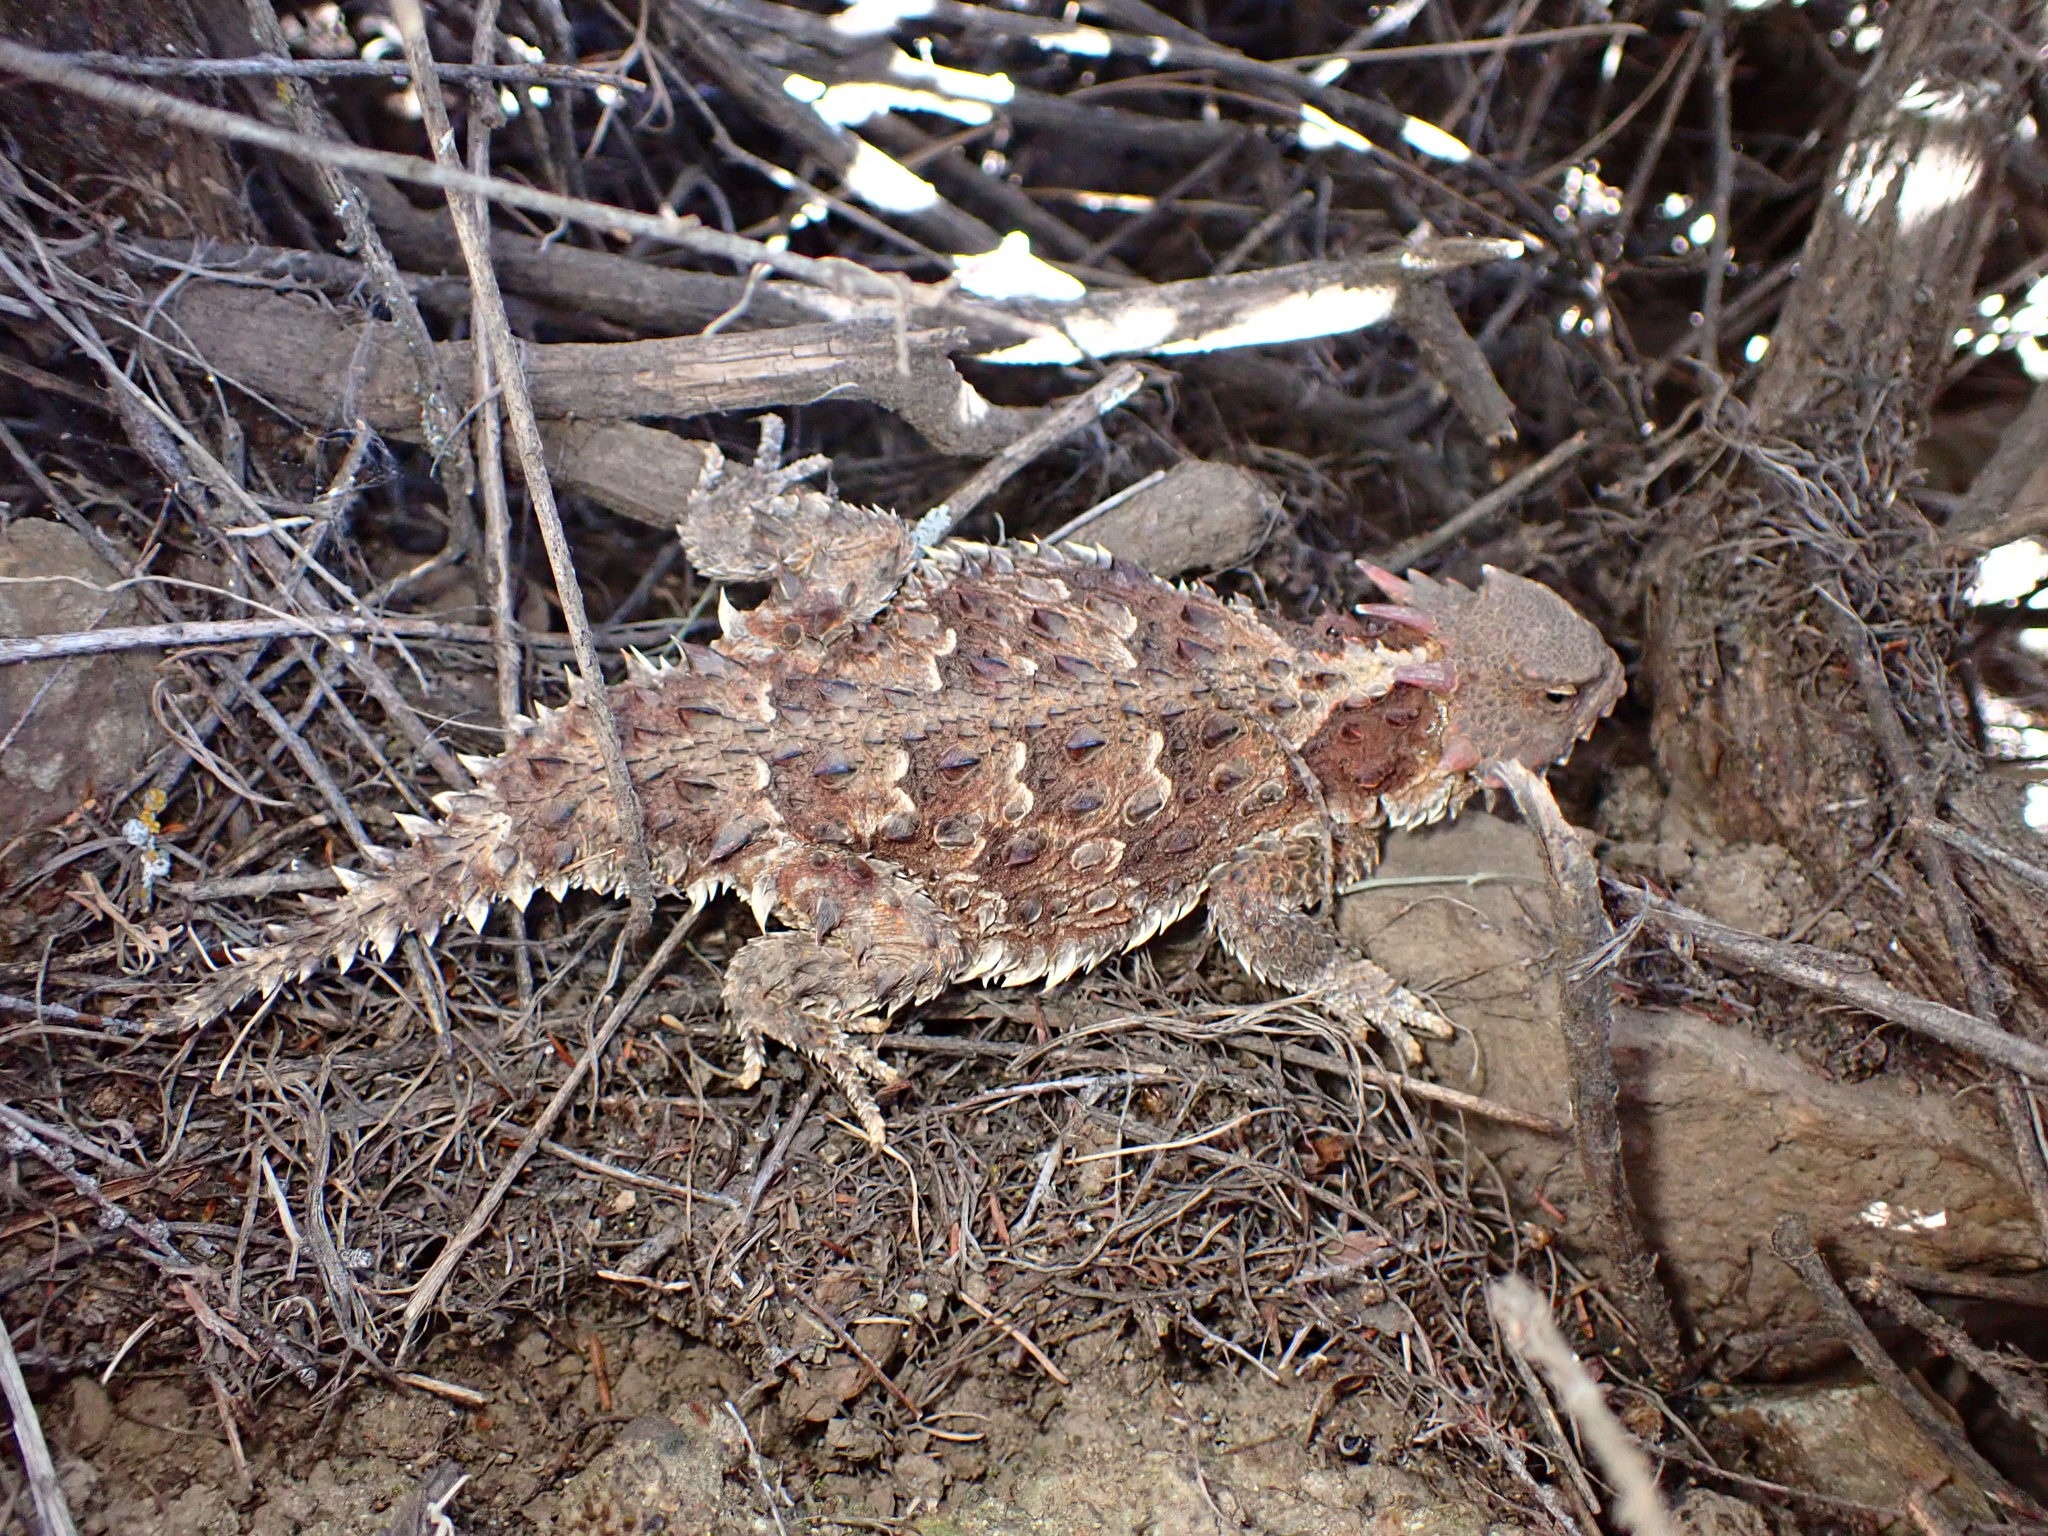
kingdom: Animalia
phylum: Chordata
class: Squamata
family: Phrynosomatidae
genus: Phrynosoma
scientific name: Phrynosoma blainvillii
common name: San diego horned lizard
